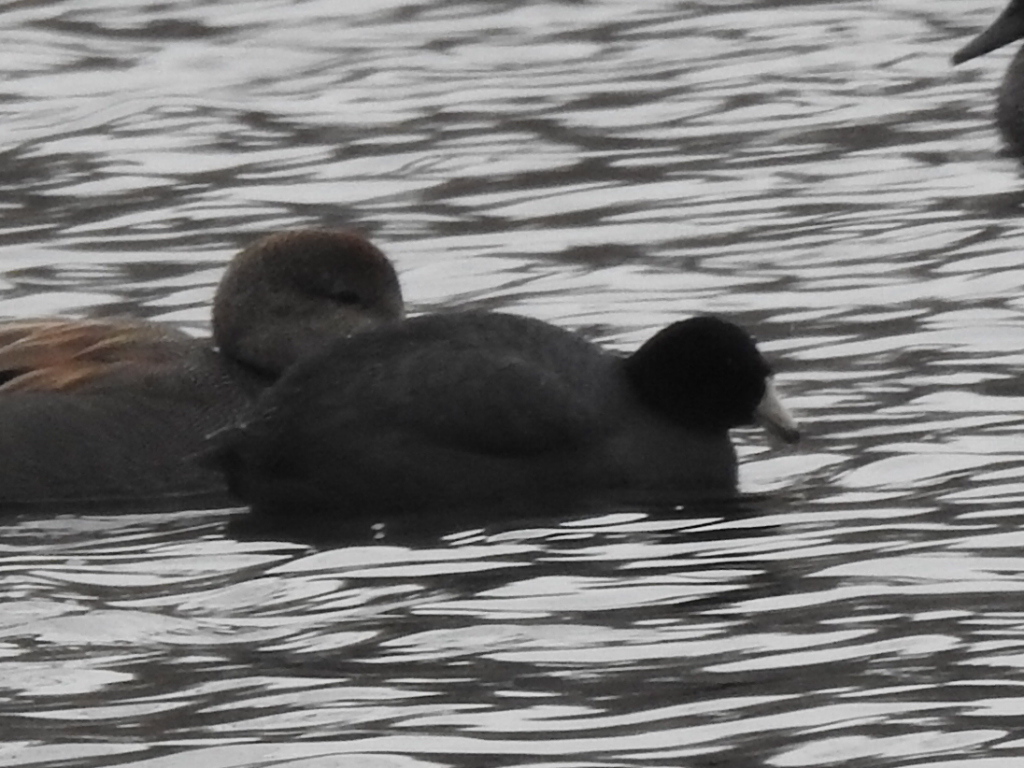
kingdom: Animalia
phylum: Chordata
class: Aves
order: Gruiformes
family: Rallidae
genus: Fulica
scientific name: Fulica americana
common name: American coot
